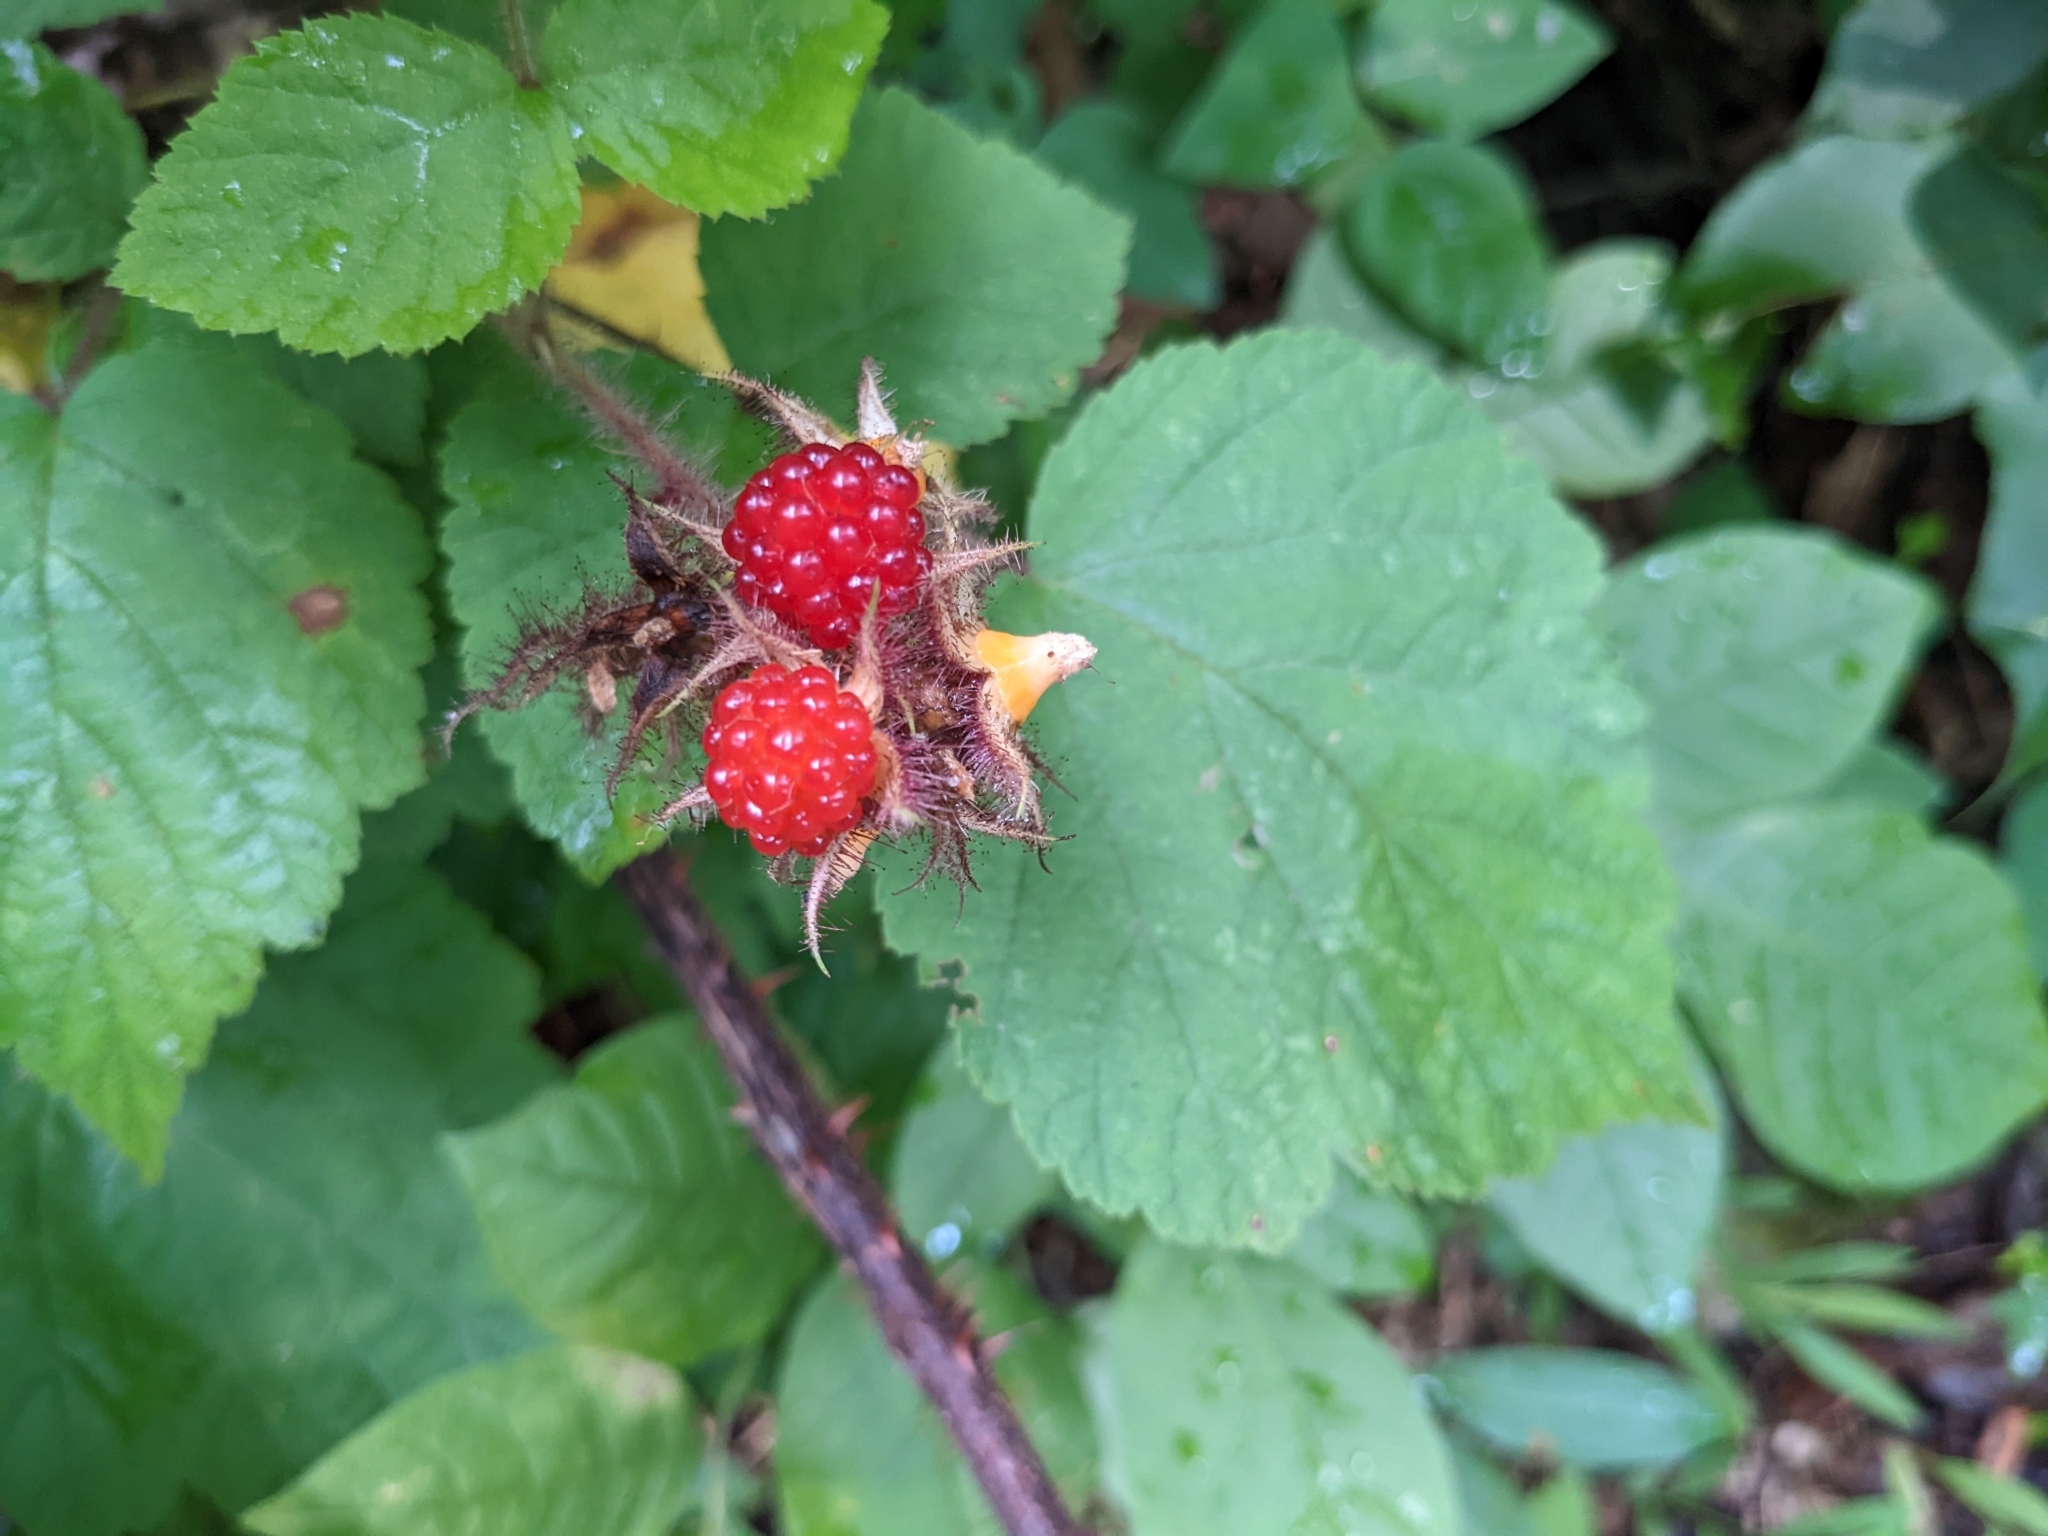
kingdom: Plantae
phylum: Tracheophyta
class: Magnoliopsida
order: Rosales
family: Rosaceae
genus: Rubus
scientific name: Rubus phoenicolasius
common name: Japanese wineberry
